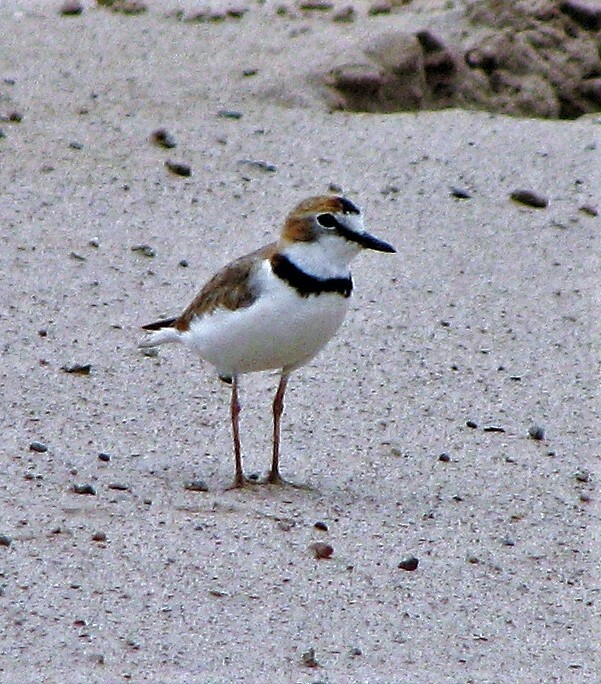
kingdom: Animalia
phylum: Chordata
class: Aves
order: Charadriiformes
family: Charadriidae
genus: Anarhynchus
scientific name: Anarhynchus
